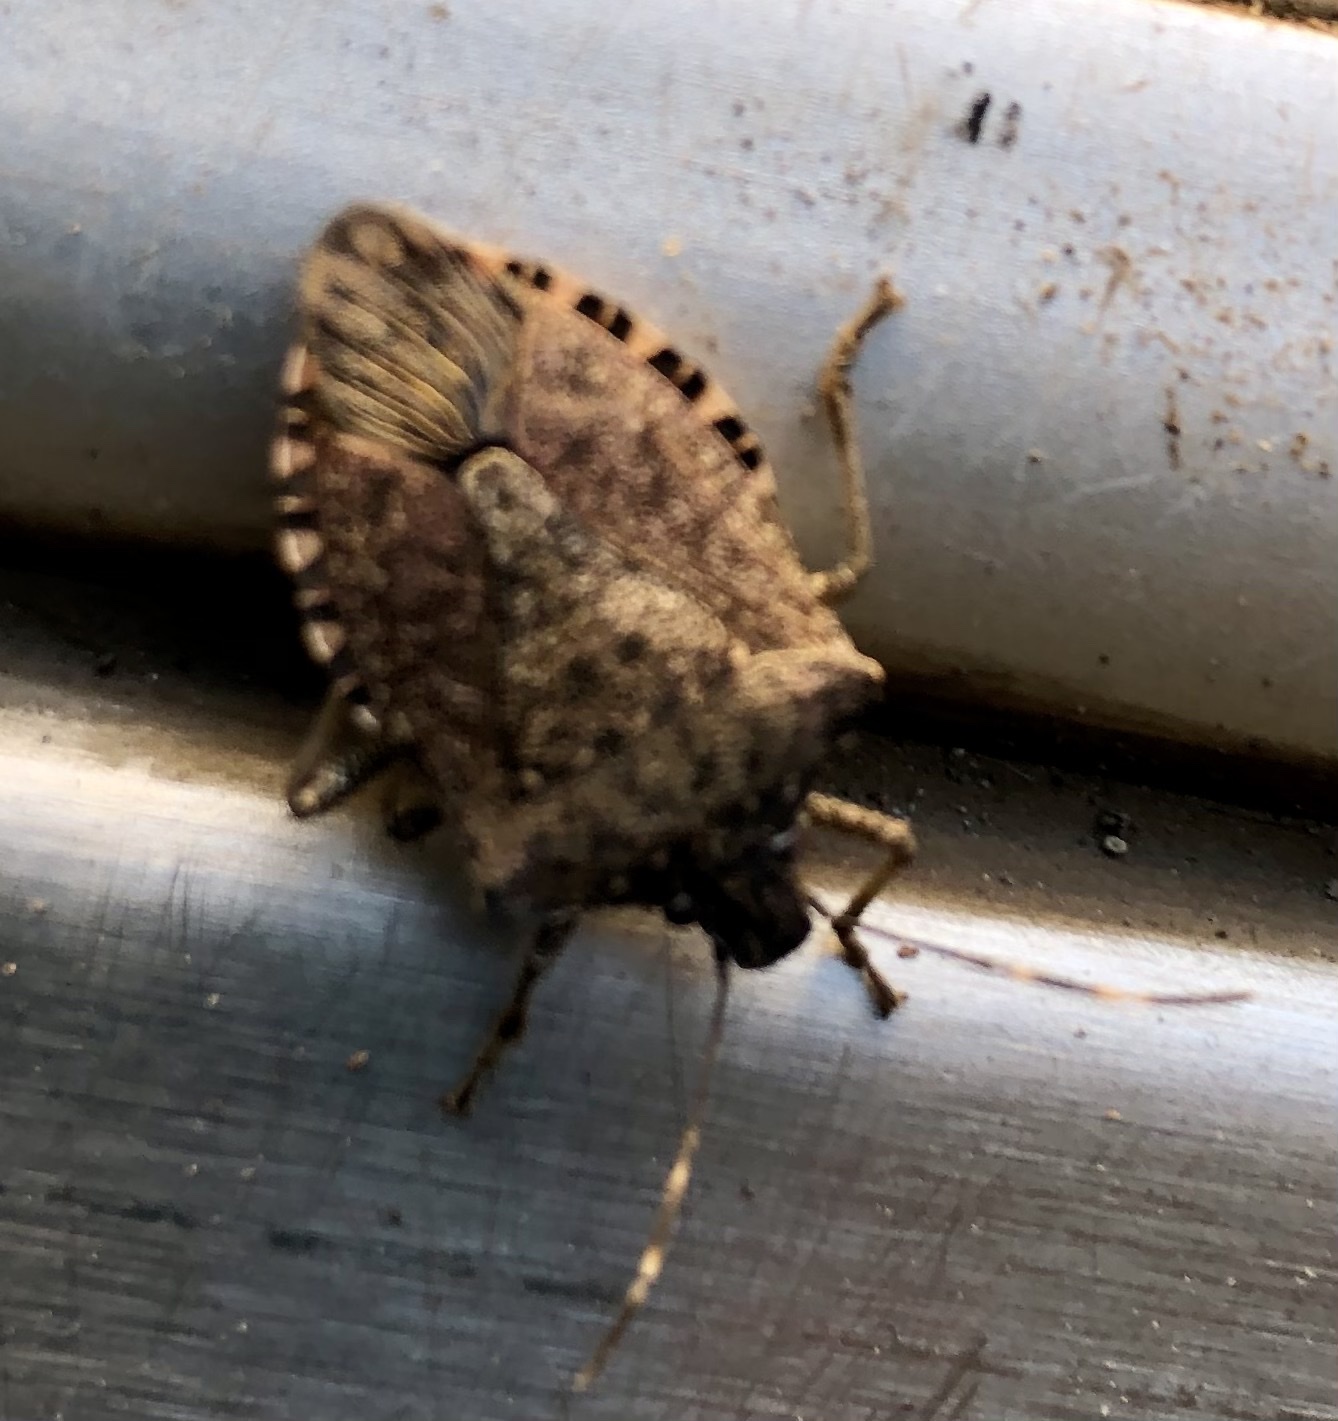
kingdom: Animalia
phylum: Arthropoda
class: Insecta
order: Hemiptera
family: Pentatomidae
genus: Halyomorpha
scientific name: Halyomorpha halys
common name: Brown marmorated stink bug
